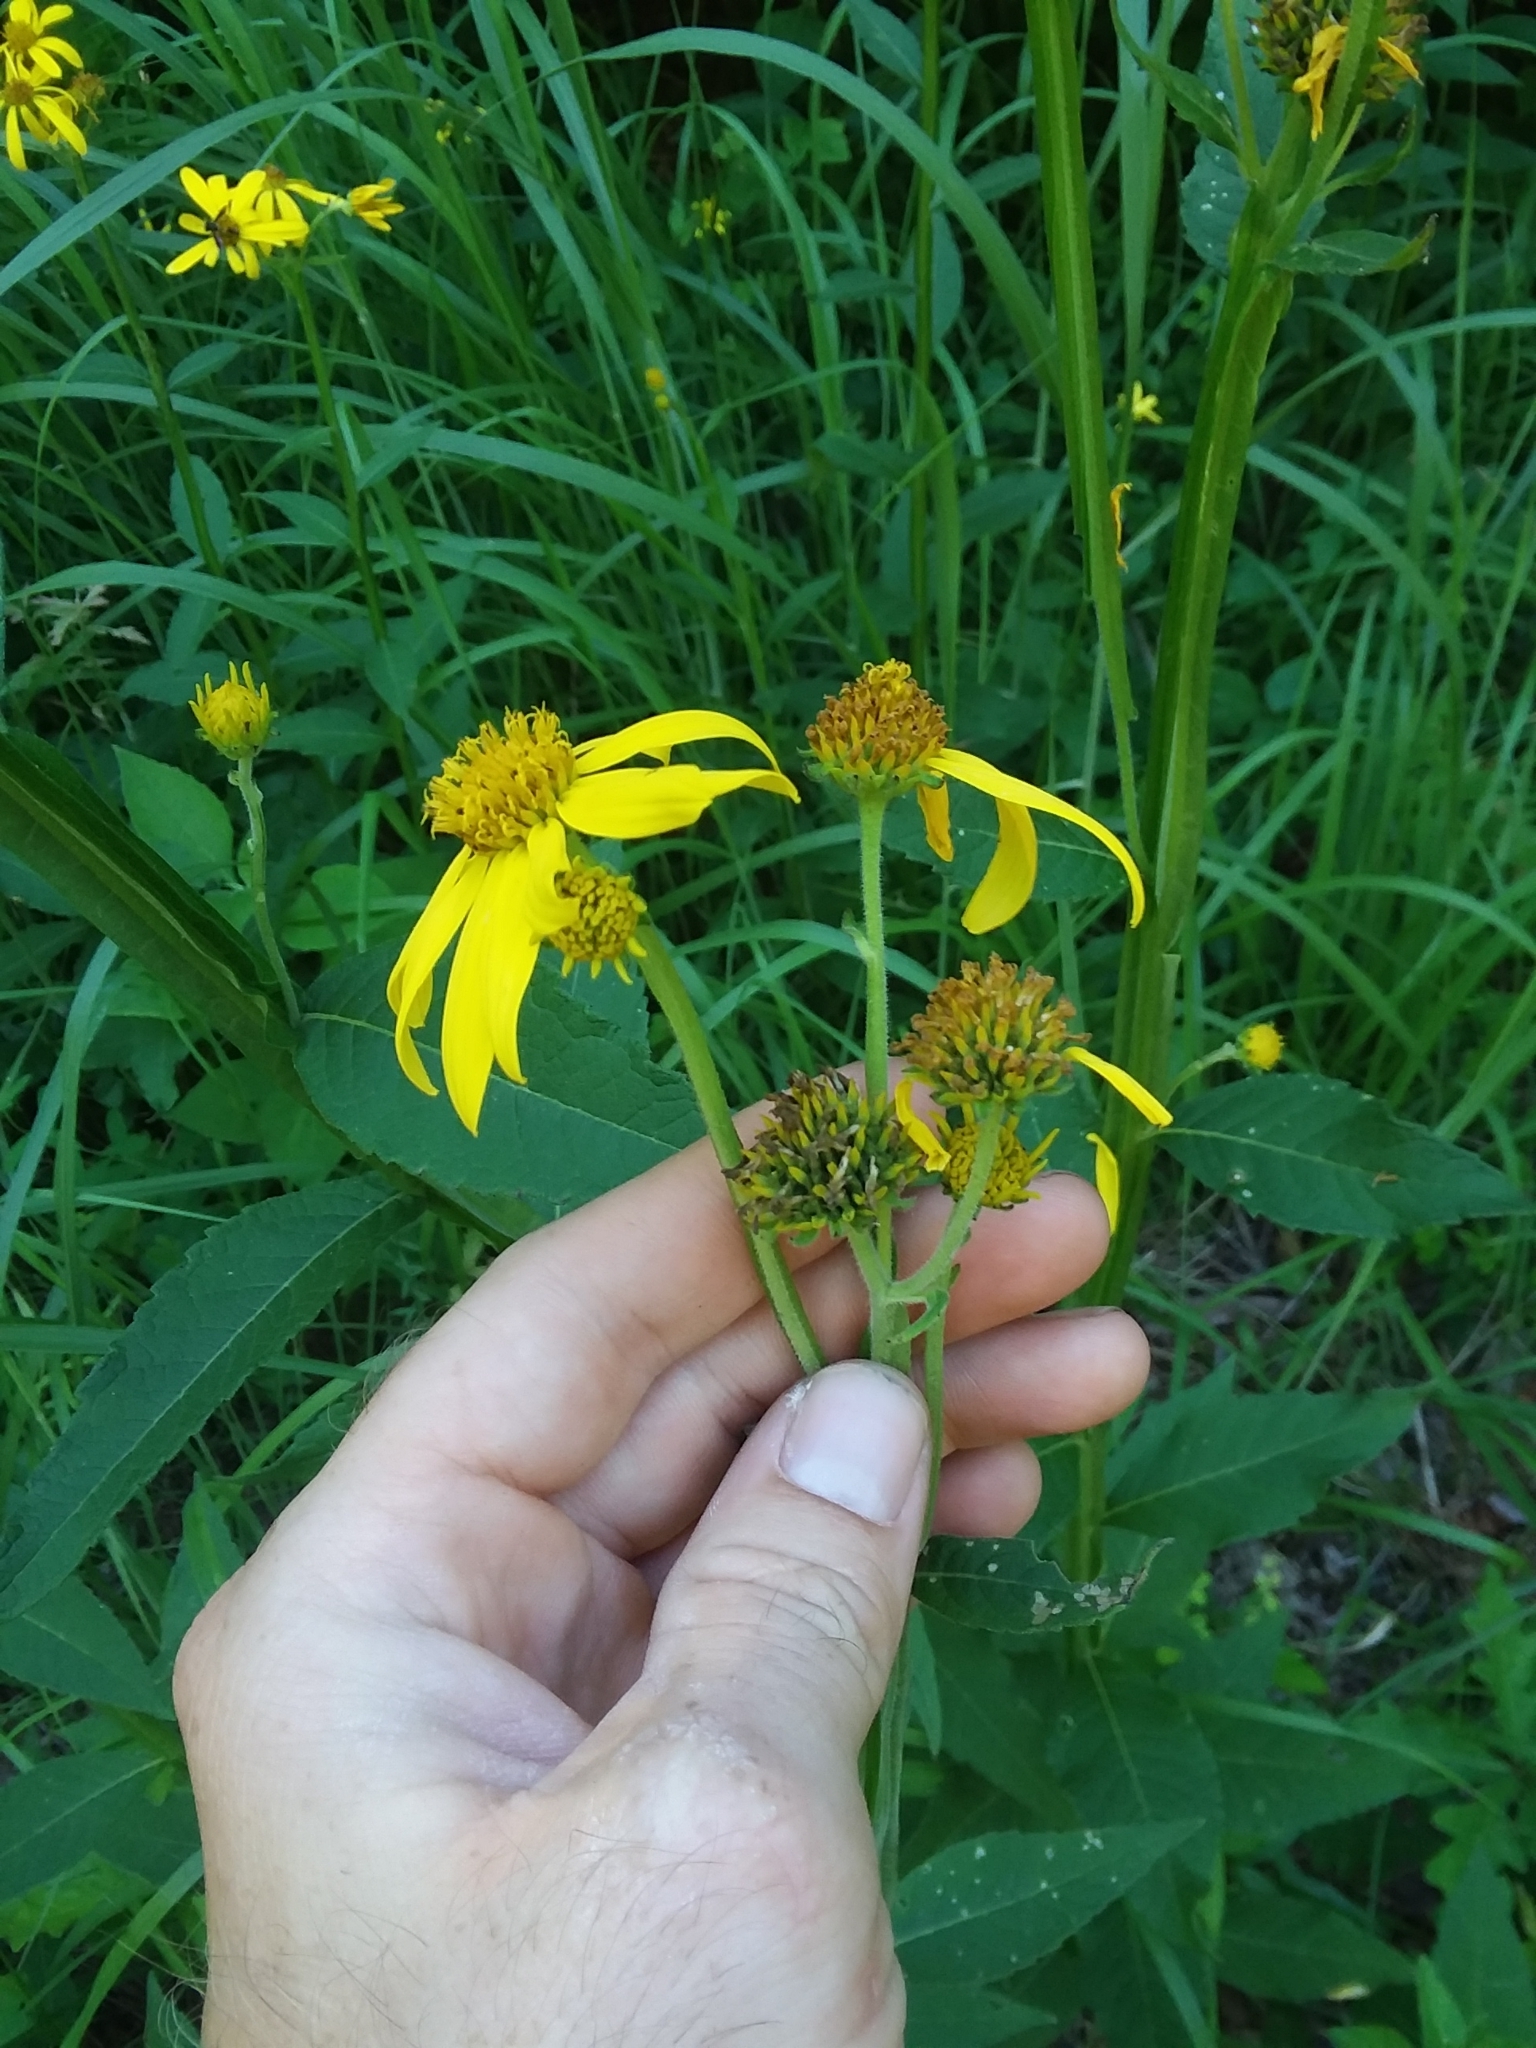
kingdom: Plantae
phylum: Tracheophyta
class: Magnoliopsida
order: Asterales
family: Asteraceae
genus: Verbesina
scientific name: Verbesina helianthoides
